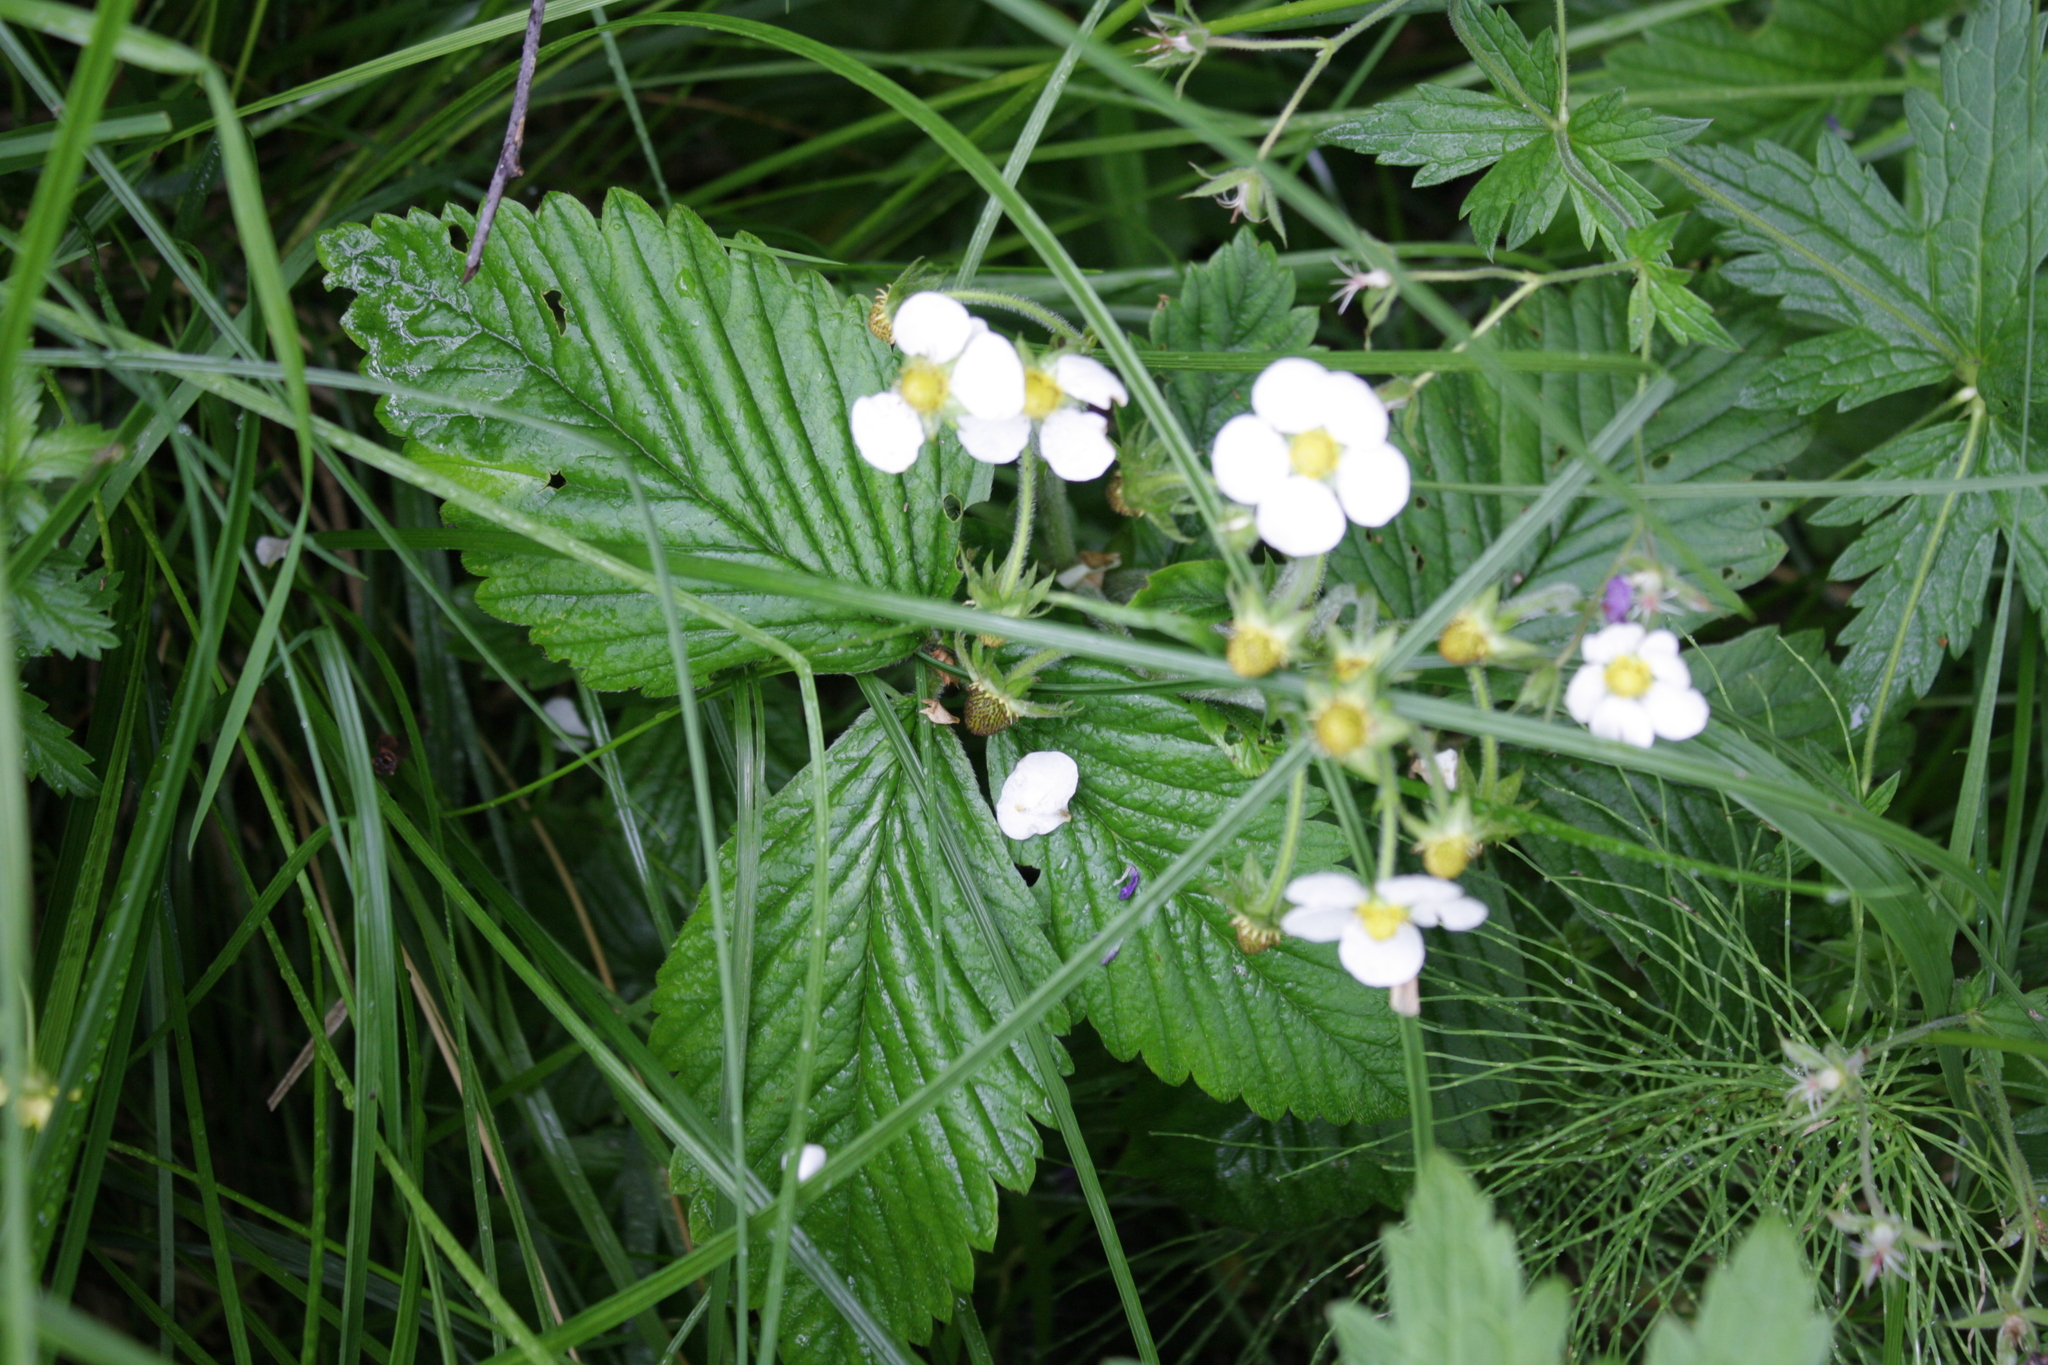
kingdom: Plantae
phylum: Tracheophyta
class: Magnoliopsida
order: Rosales
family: Rosaceae
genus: Fragaria
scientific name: Fragaria moschata
